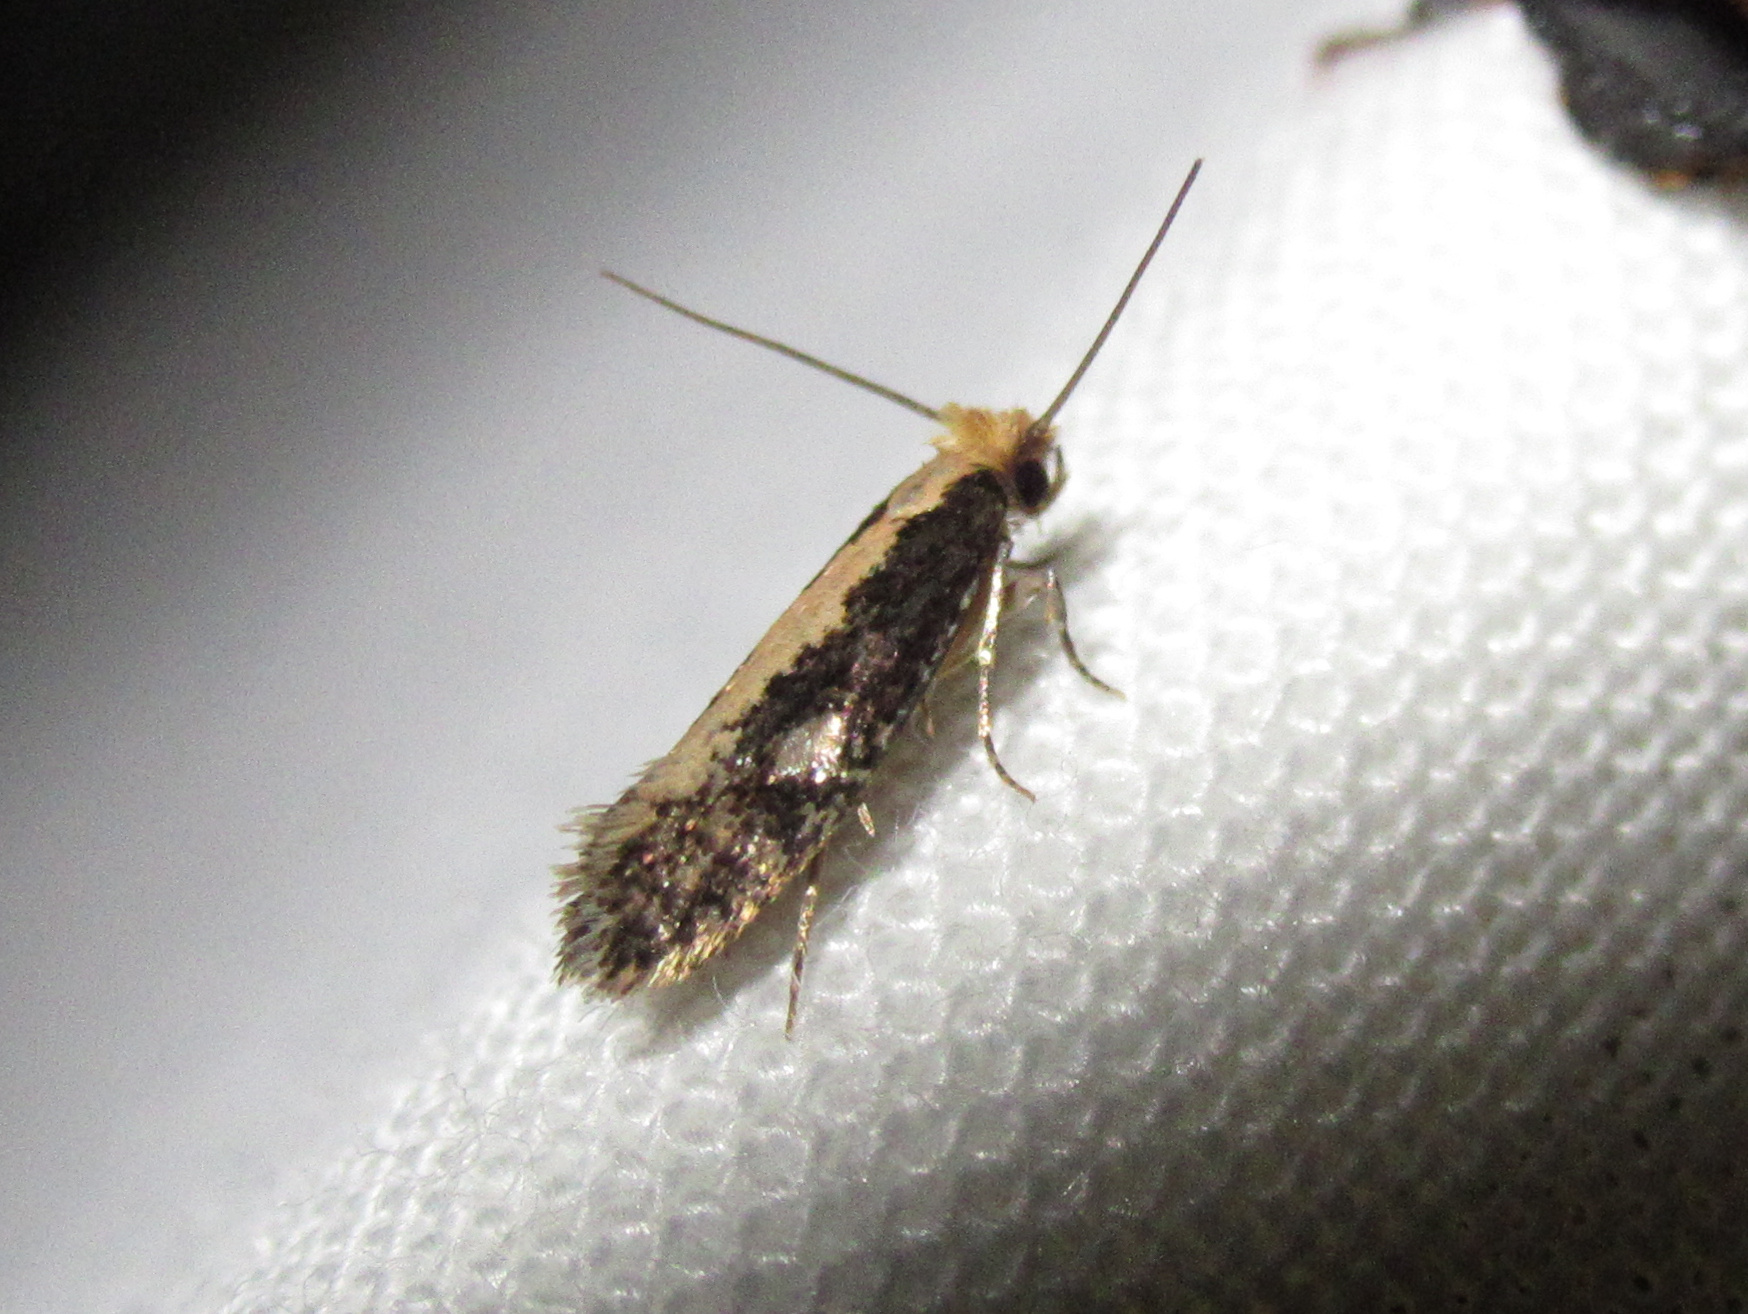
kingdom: Animalia
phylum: Arthropoda
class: Insecta
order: Lepidoptera
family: Tineidae
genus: Monopis
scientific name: Monopis crocicapitella
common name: Moth
